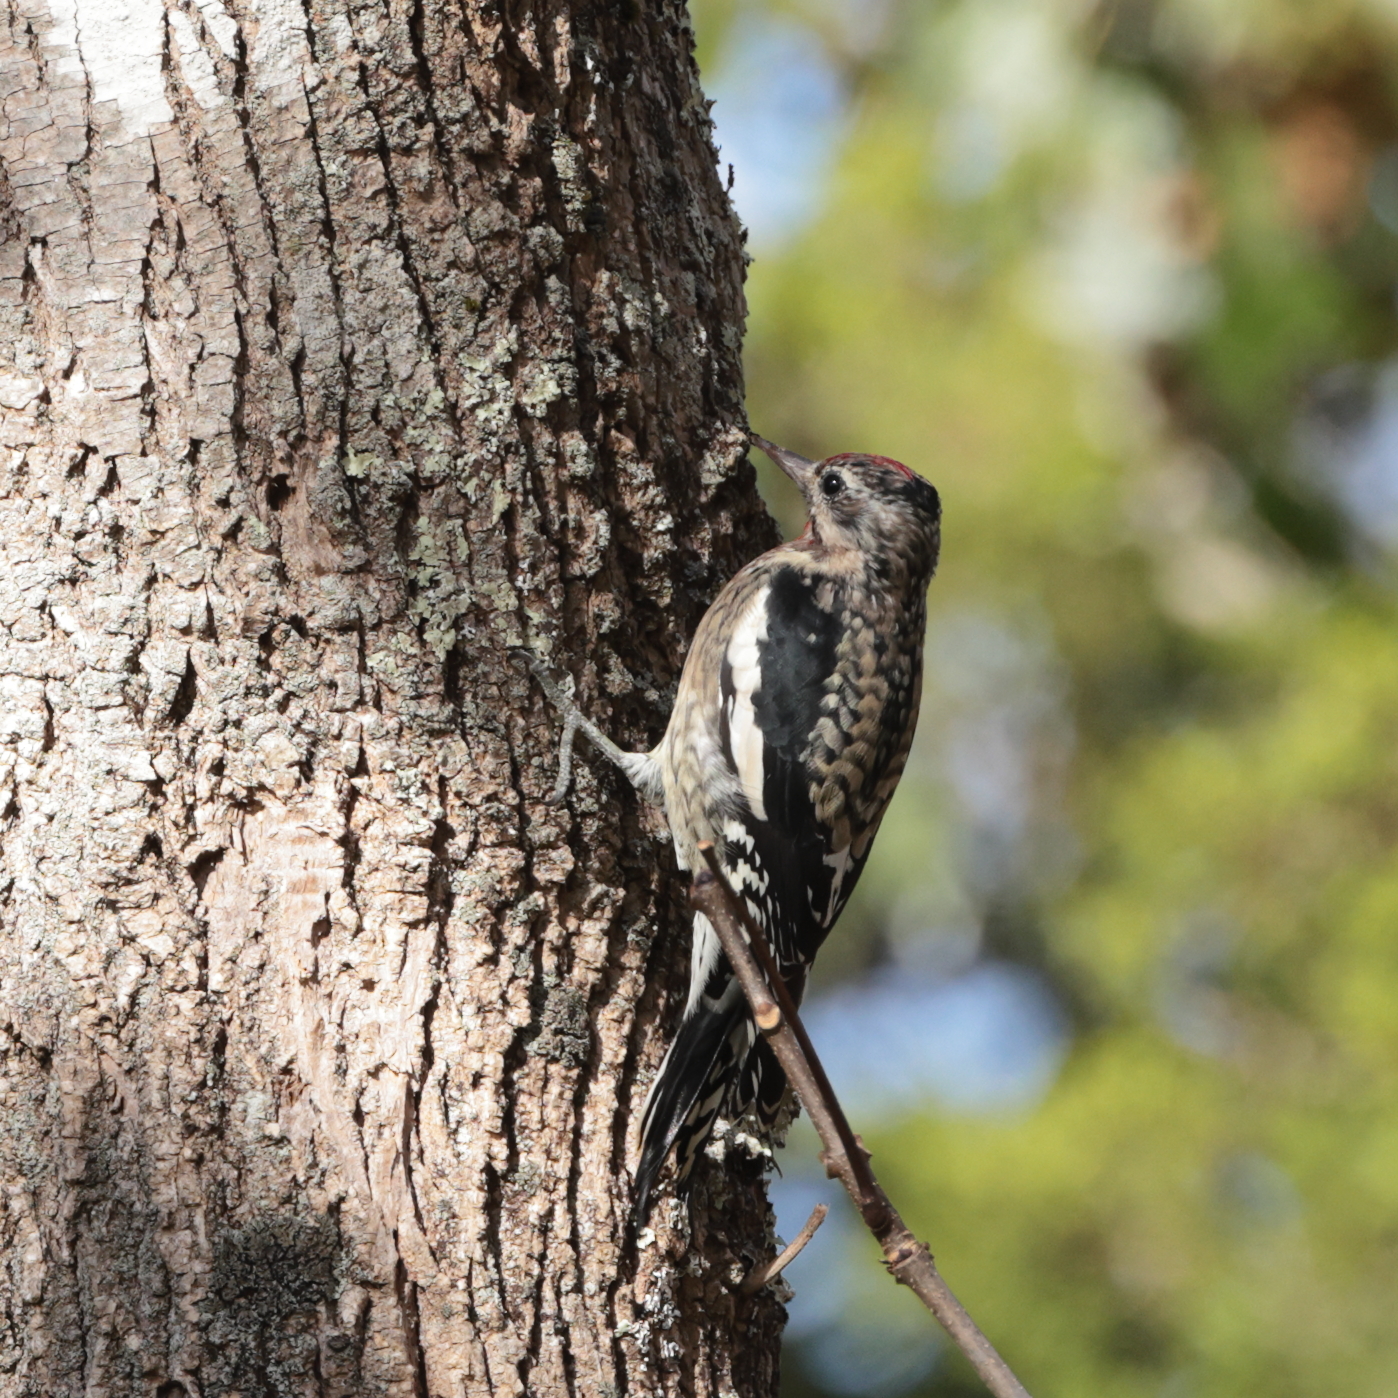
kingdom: Animalia
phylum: Chordata
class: Aves
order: Piciformes
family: Picidae
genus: Sphyrapicus
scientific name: Sphyrapicus varius
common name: Yellow-bellied sapsucker
